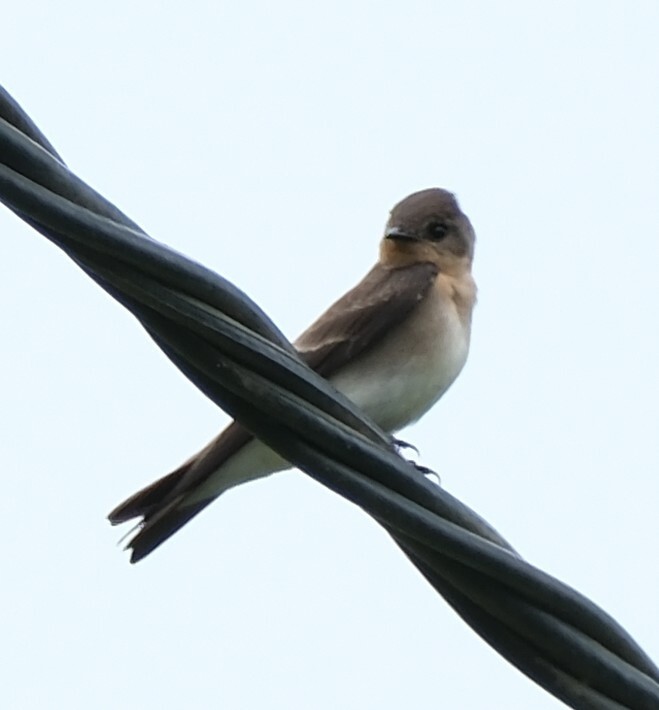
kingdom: Animalia
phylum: Chordata
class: Aves
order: Passeriformes
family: Hirundinidae
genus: Stelgidopteryx
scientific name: Stelgidopteryx ruficollis
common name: Southern rough-winged swallow
